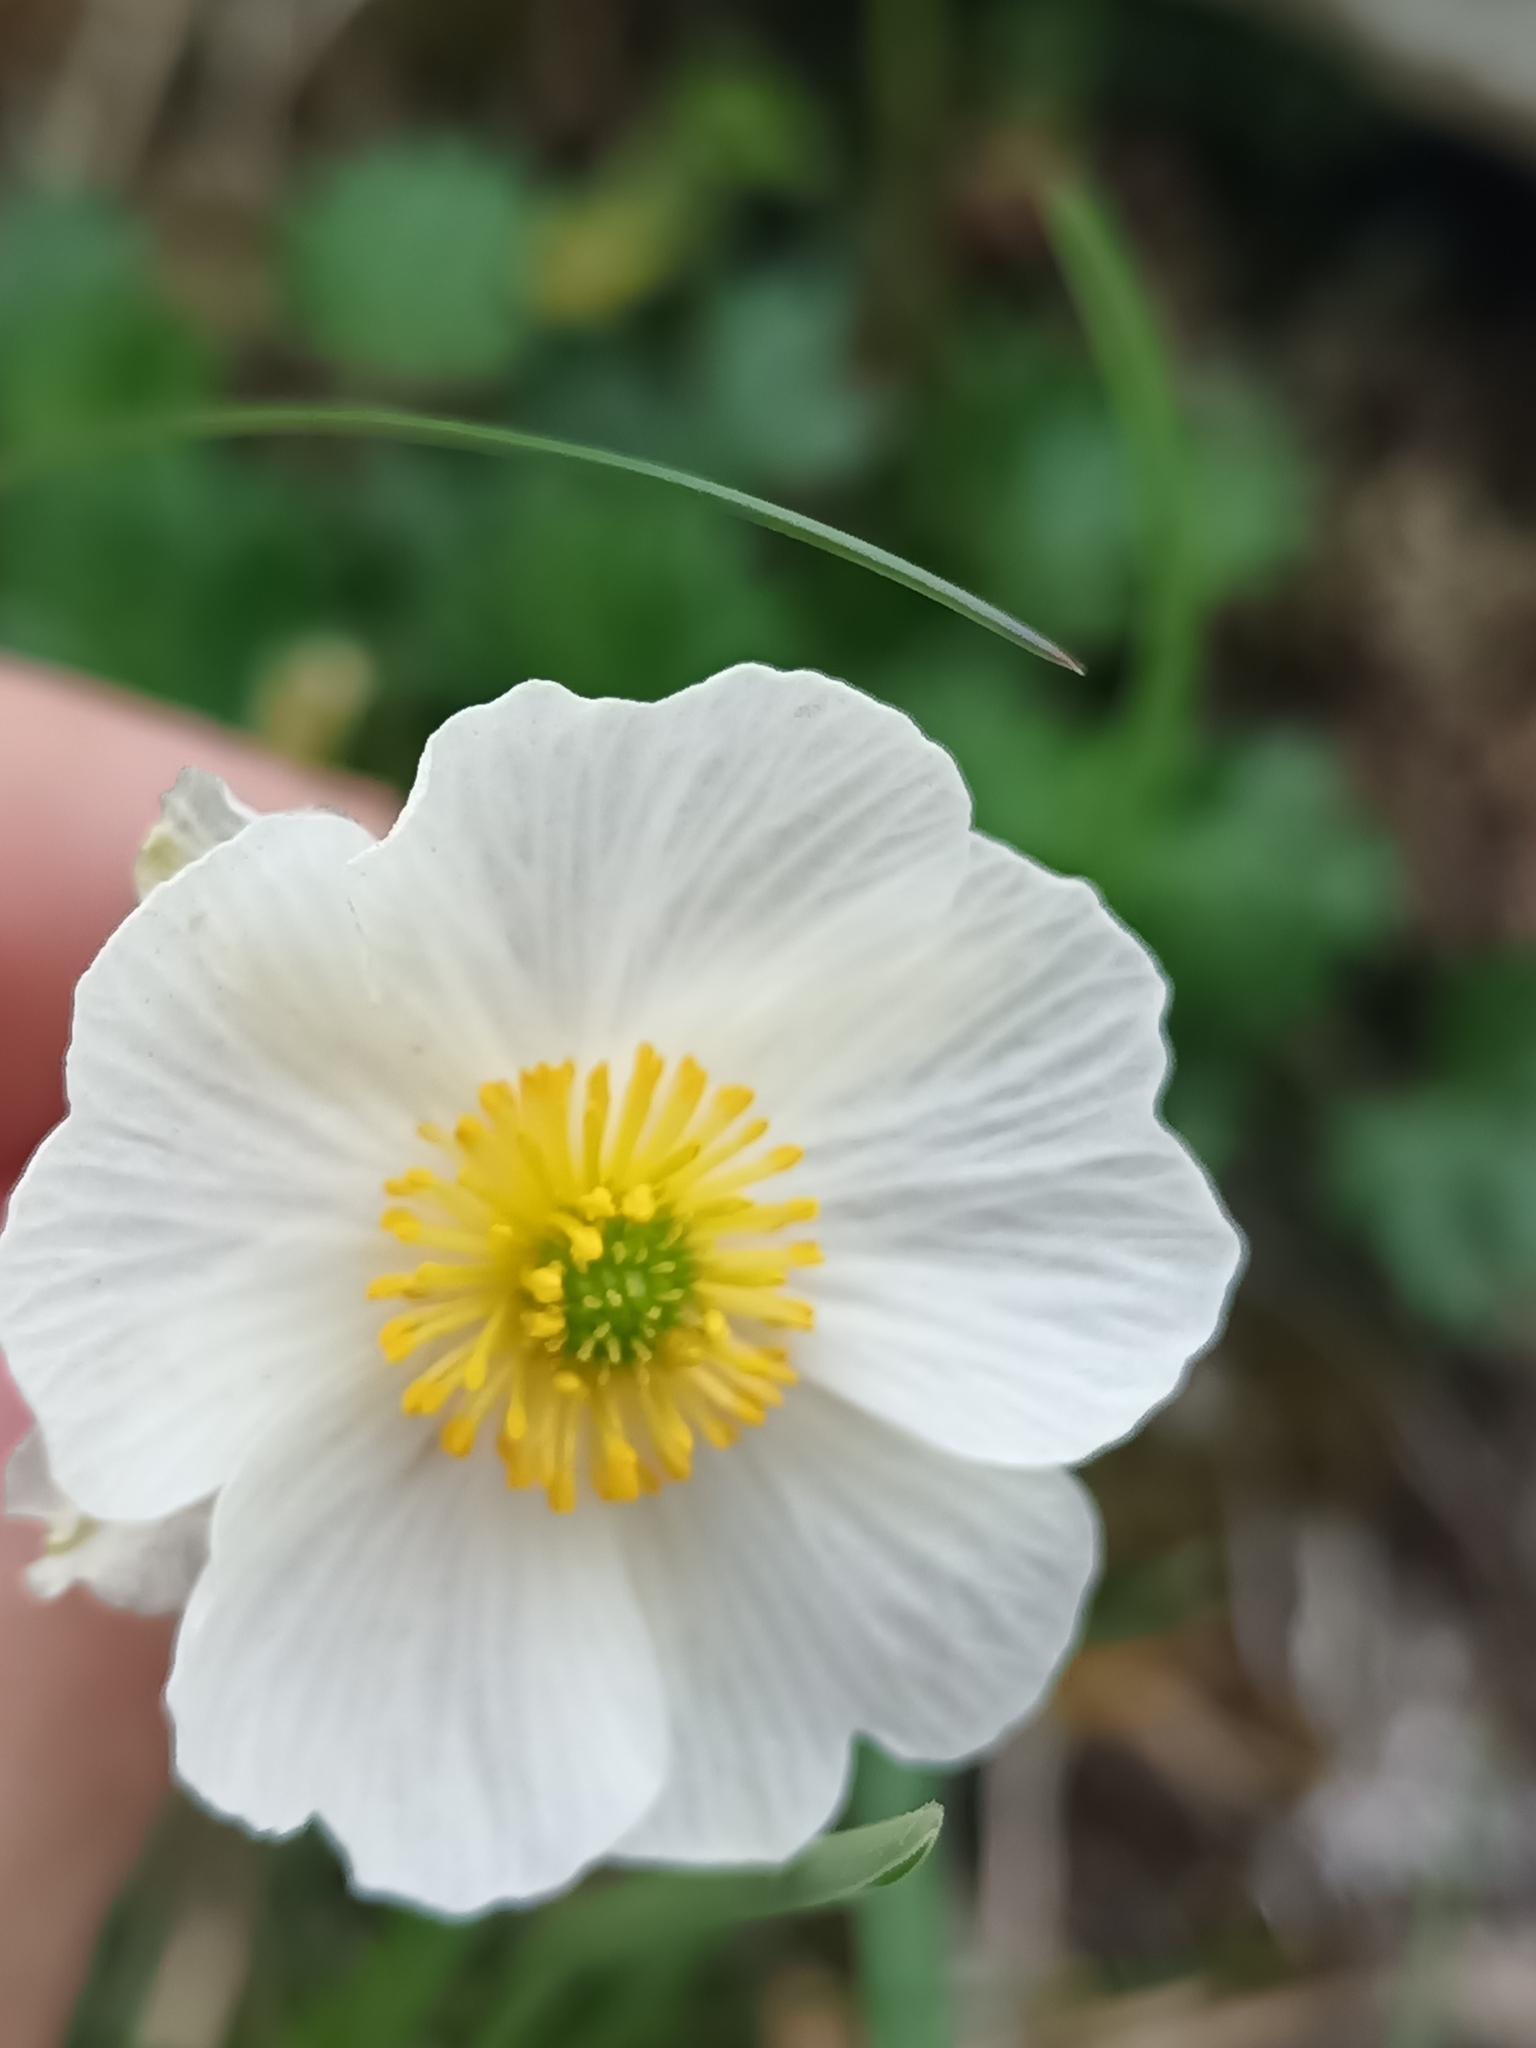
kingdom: Plantae
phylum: Tracheophyta
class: Magnoliopsida
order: Ranunculales
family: Ranunculaceae
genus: Ranunculus
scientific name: Ranunculus alpestris
